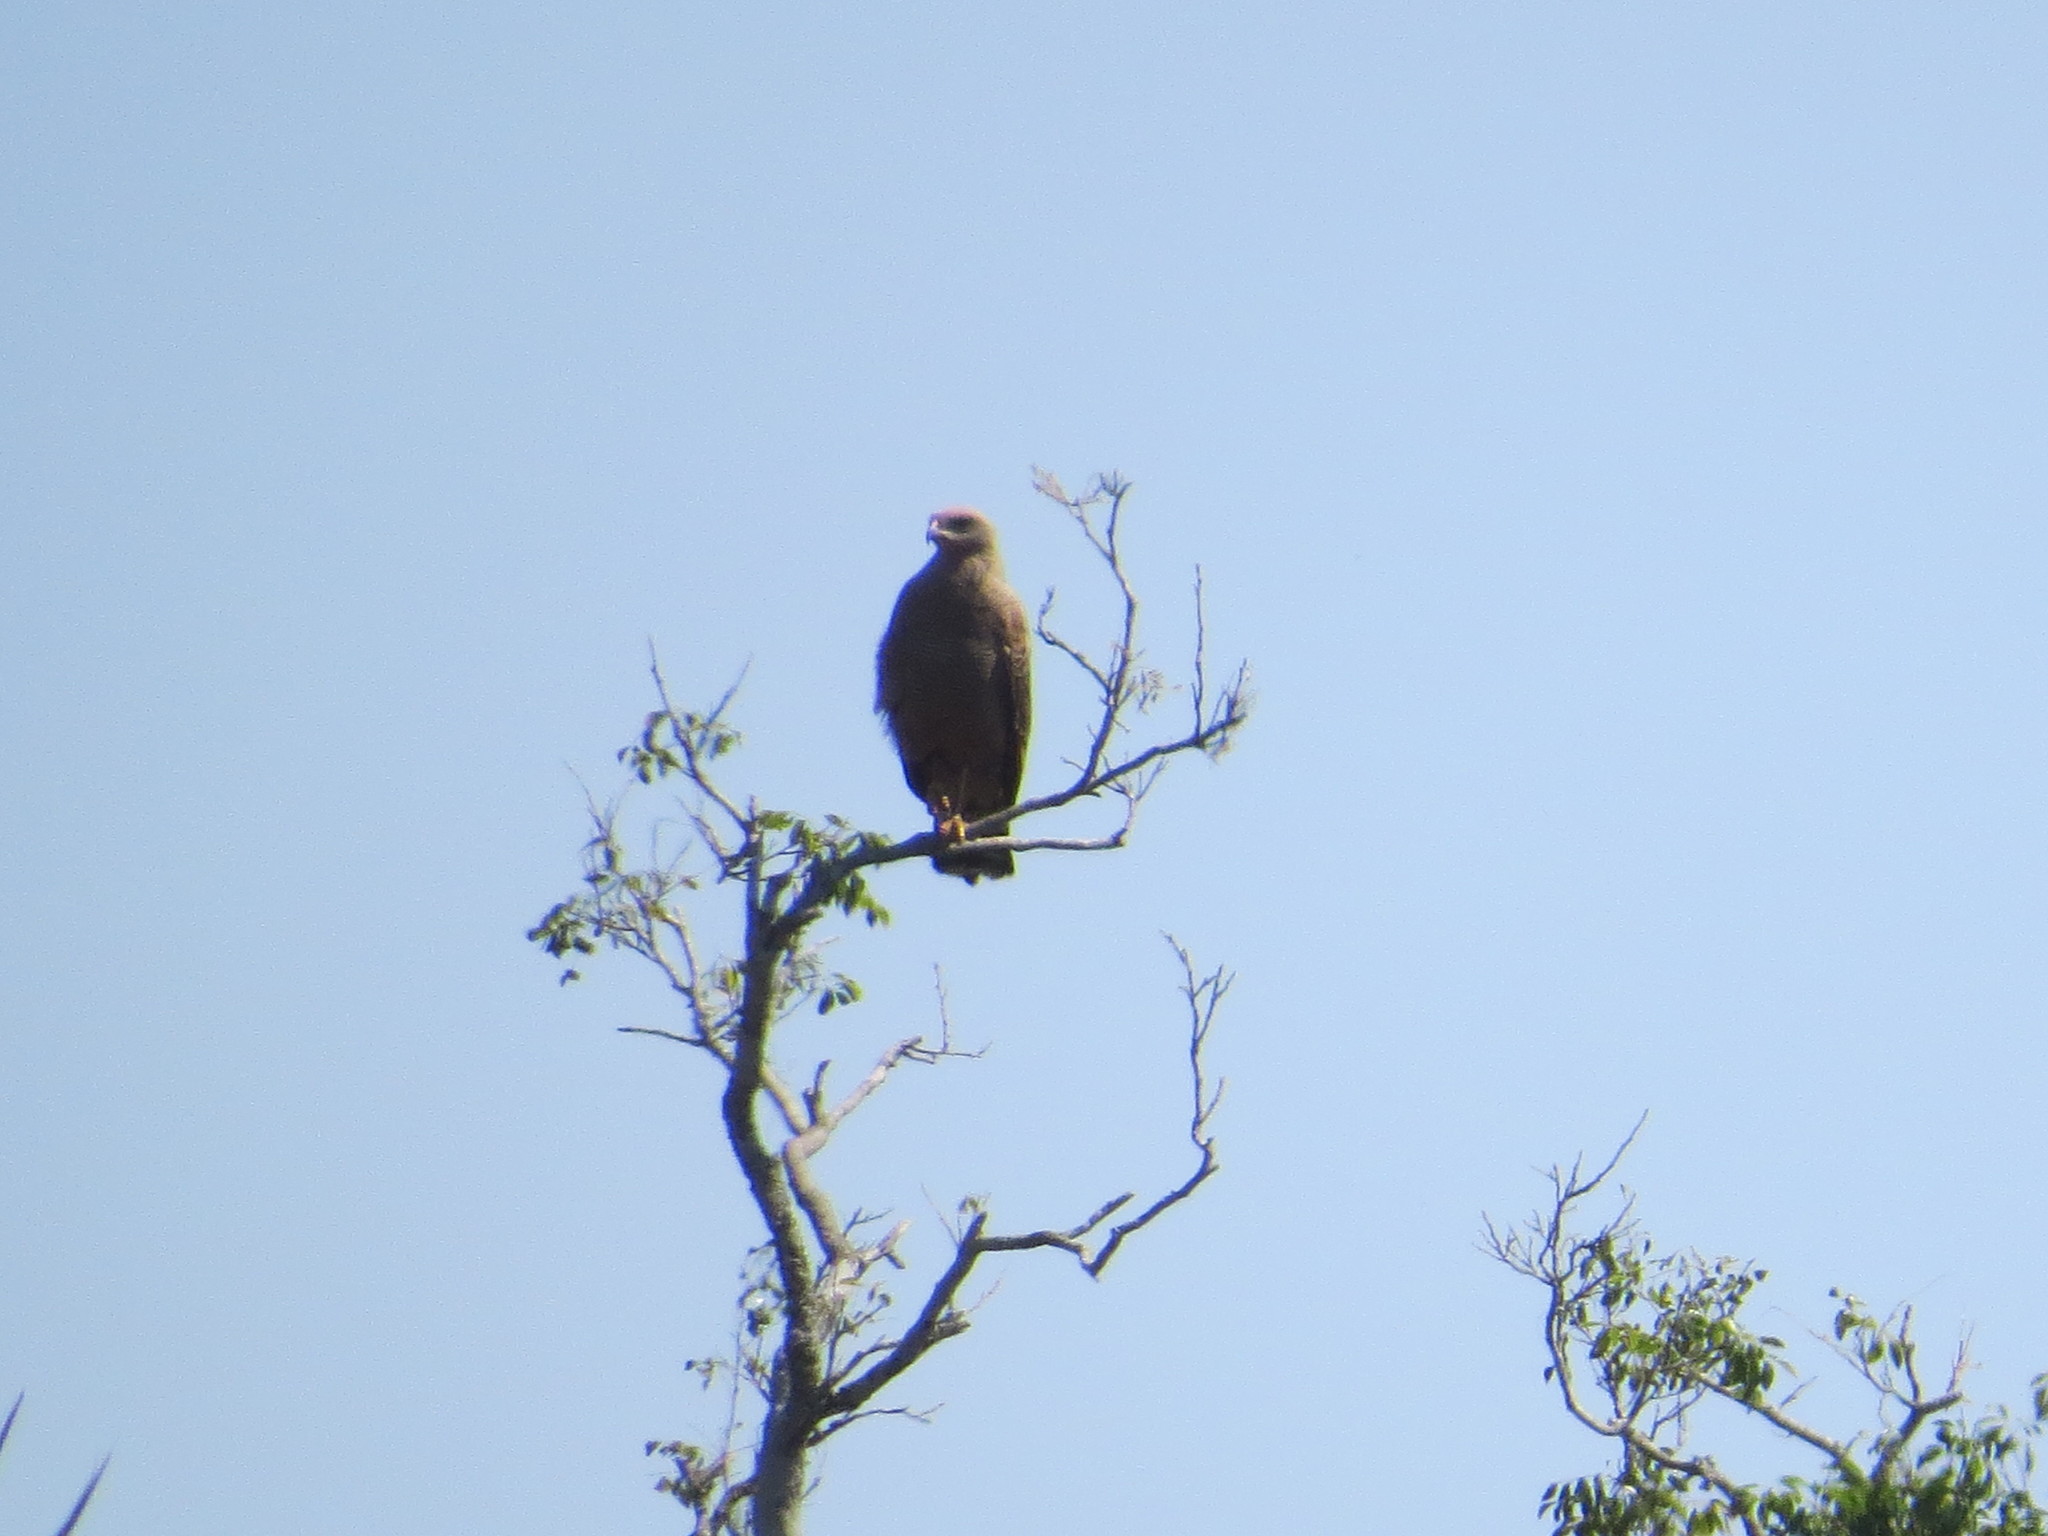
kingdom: Animalia
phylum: Chordata
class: Aves
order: Accipitriformes
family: Accipitridae
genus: Buteogallus
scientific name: Buteogallus meridionalis
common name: Savanna hawk
